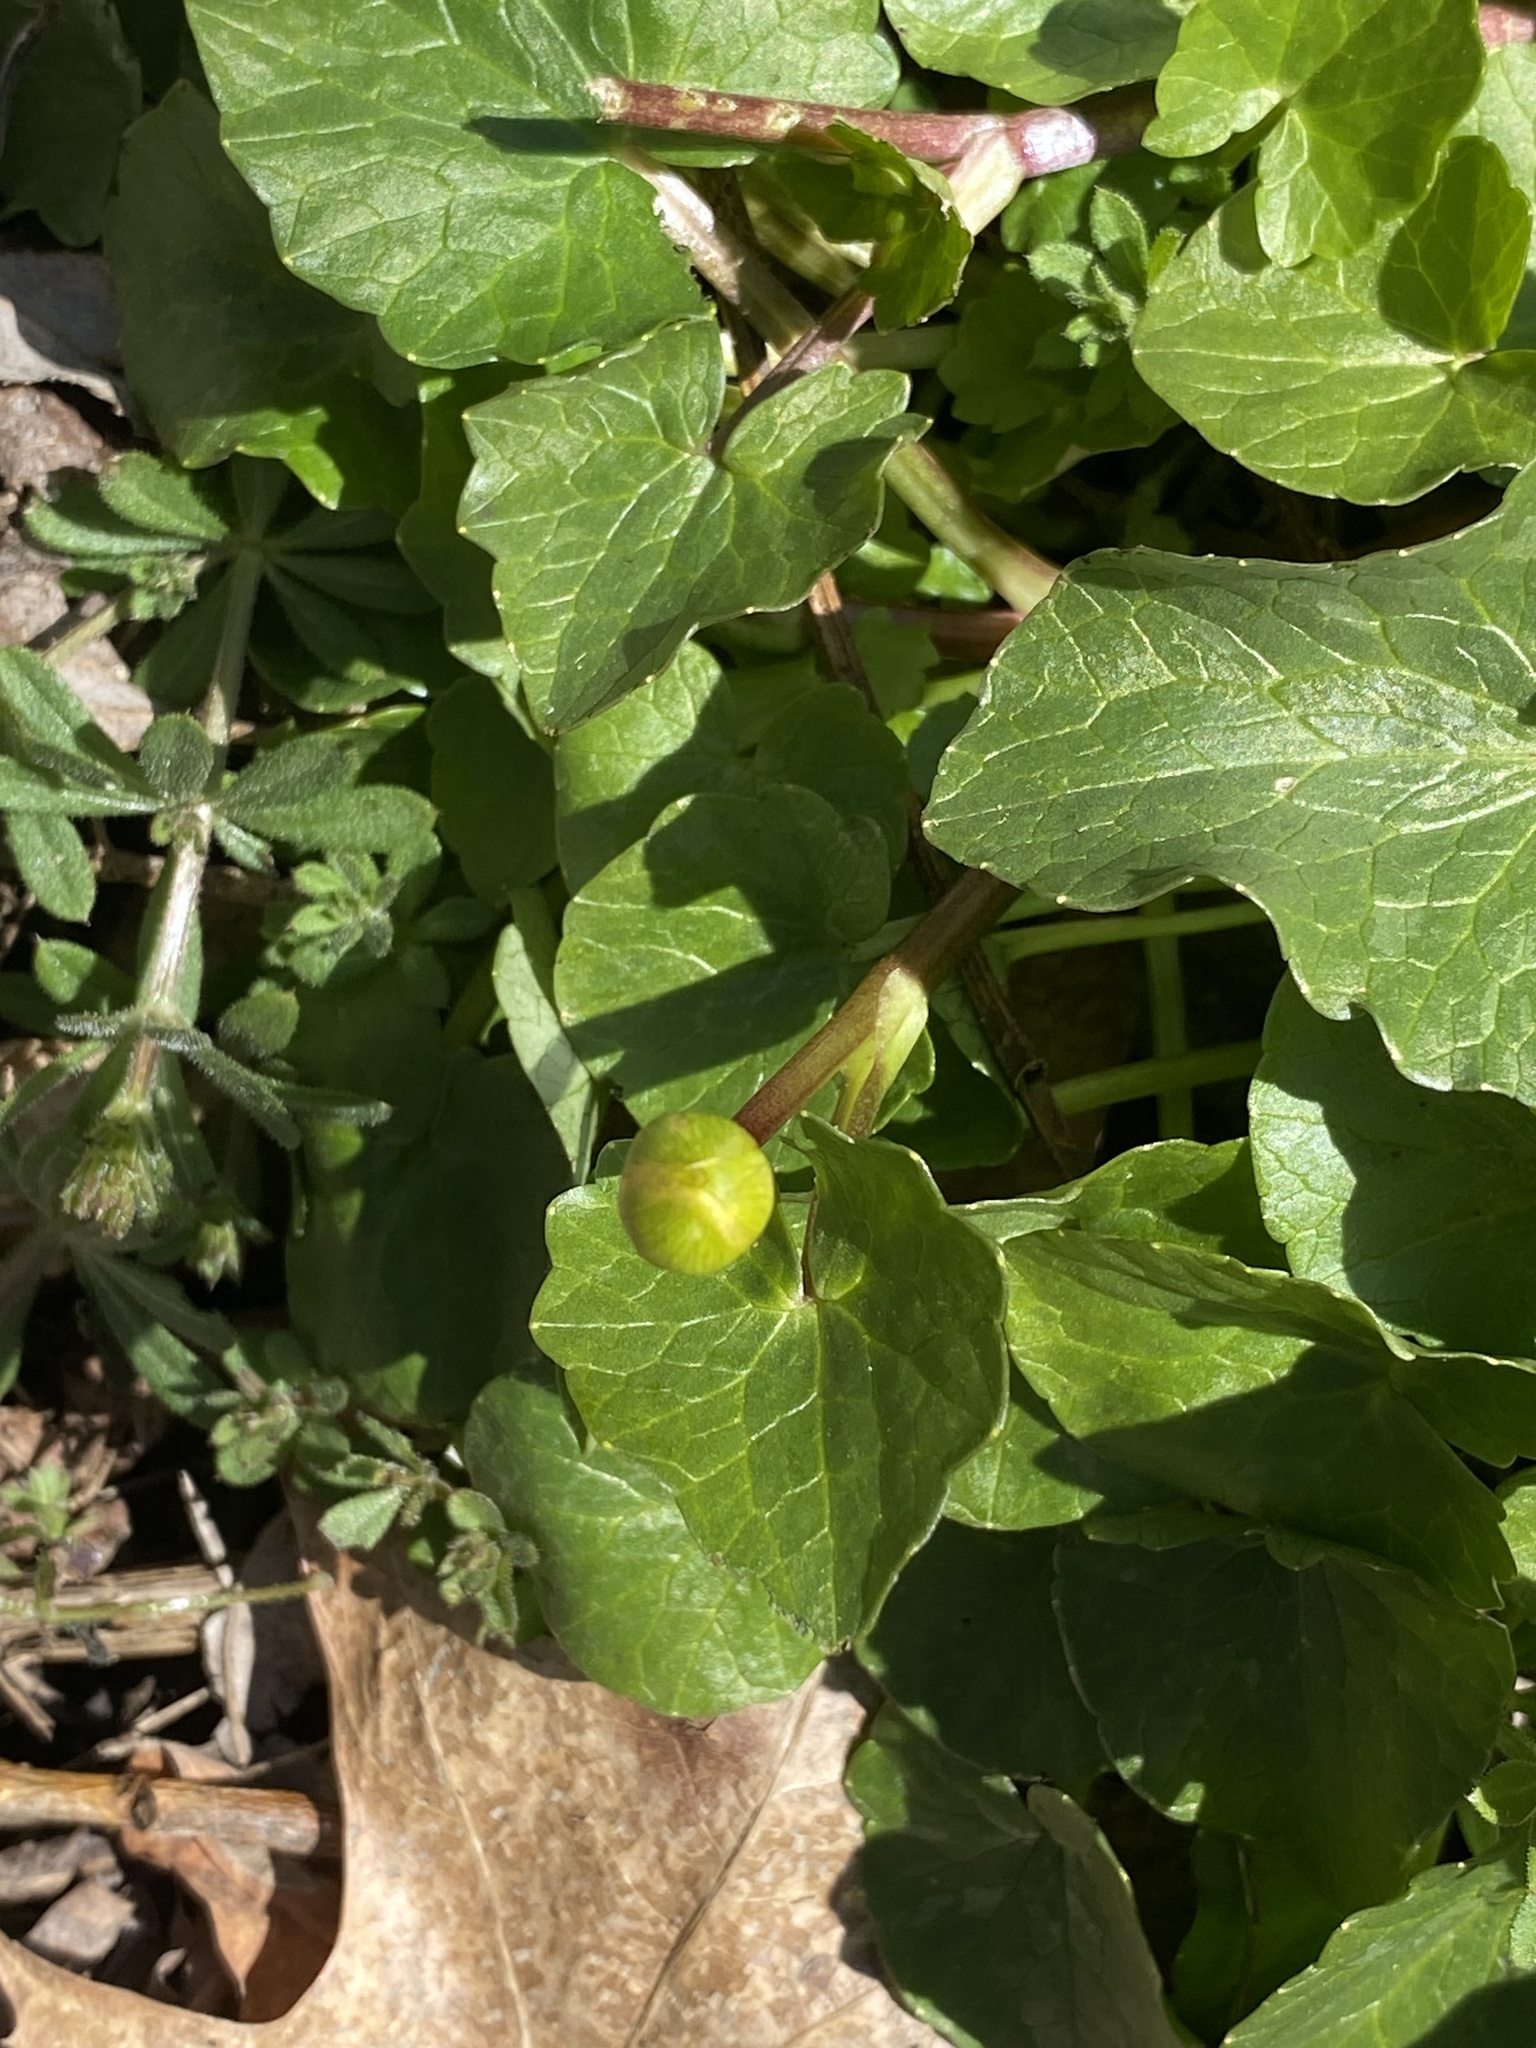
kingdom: Plantae
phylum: Tracheophyta
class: Magnoliopsida
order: Ranunculales
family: Ranunculaceae
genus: Ficaria
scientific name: Ficaria verna
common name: Lesser celandine
